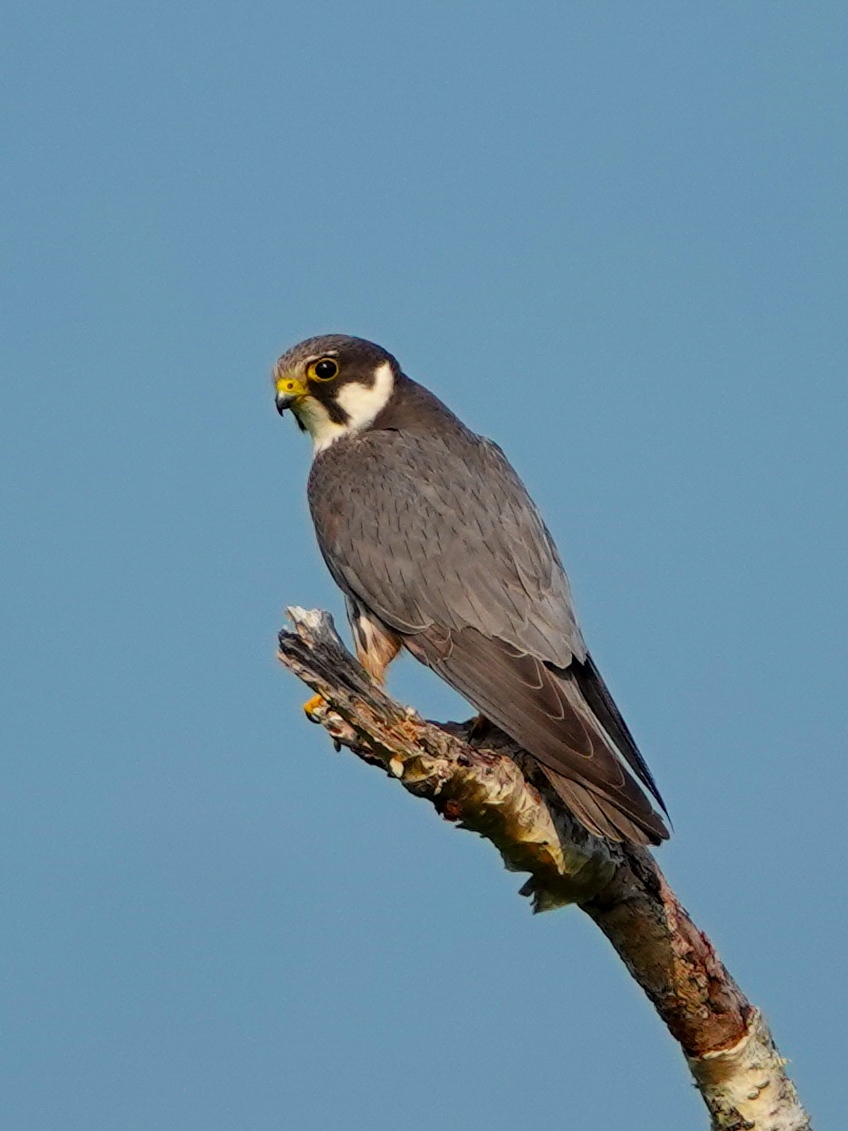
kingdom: Animalia
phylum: Chordata
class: Aves
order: Falconiformes
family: Falconidae
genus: Falco
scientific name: Falco subbuteo
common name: Eurasian hobby
